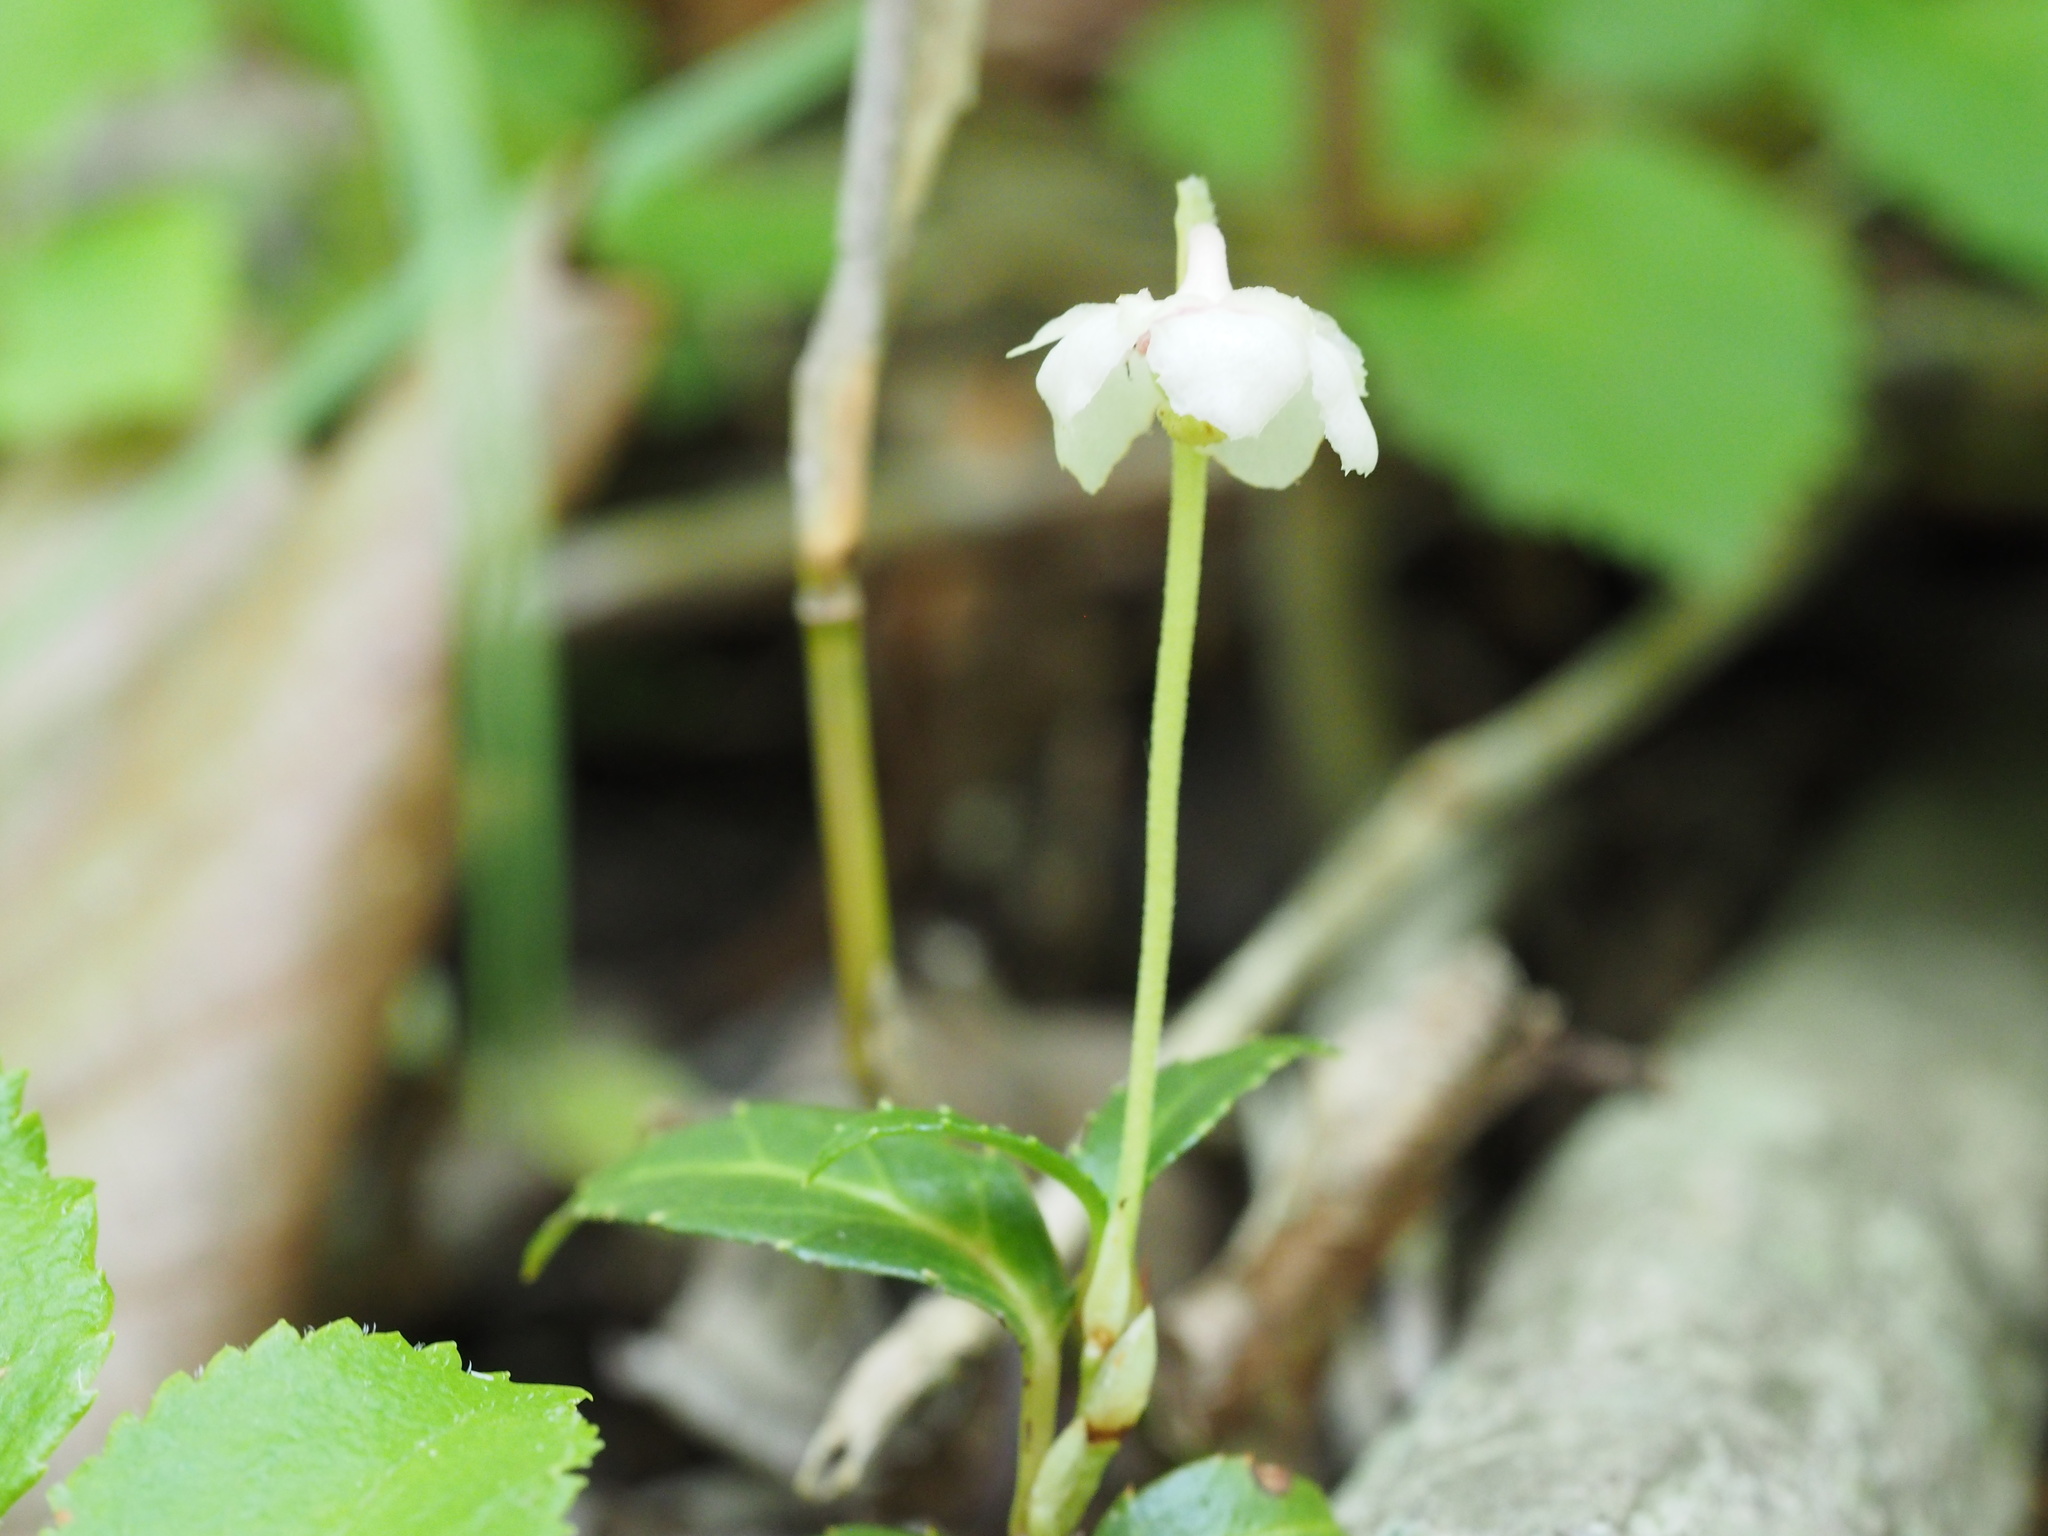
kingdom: Plantae
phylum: Tracheophyta
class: Magnoliopsida
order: Ericales
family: Ericaceae
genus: Chimaphila
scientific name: Chimaphila japonica
